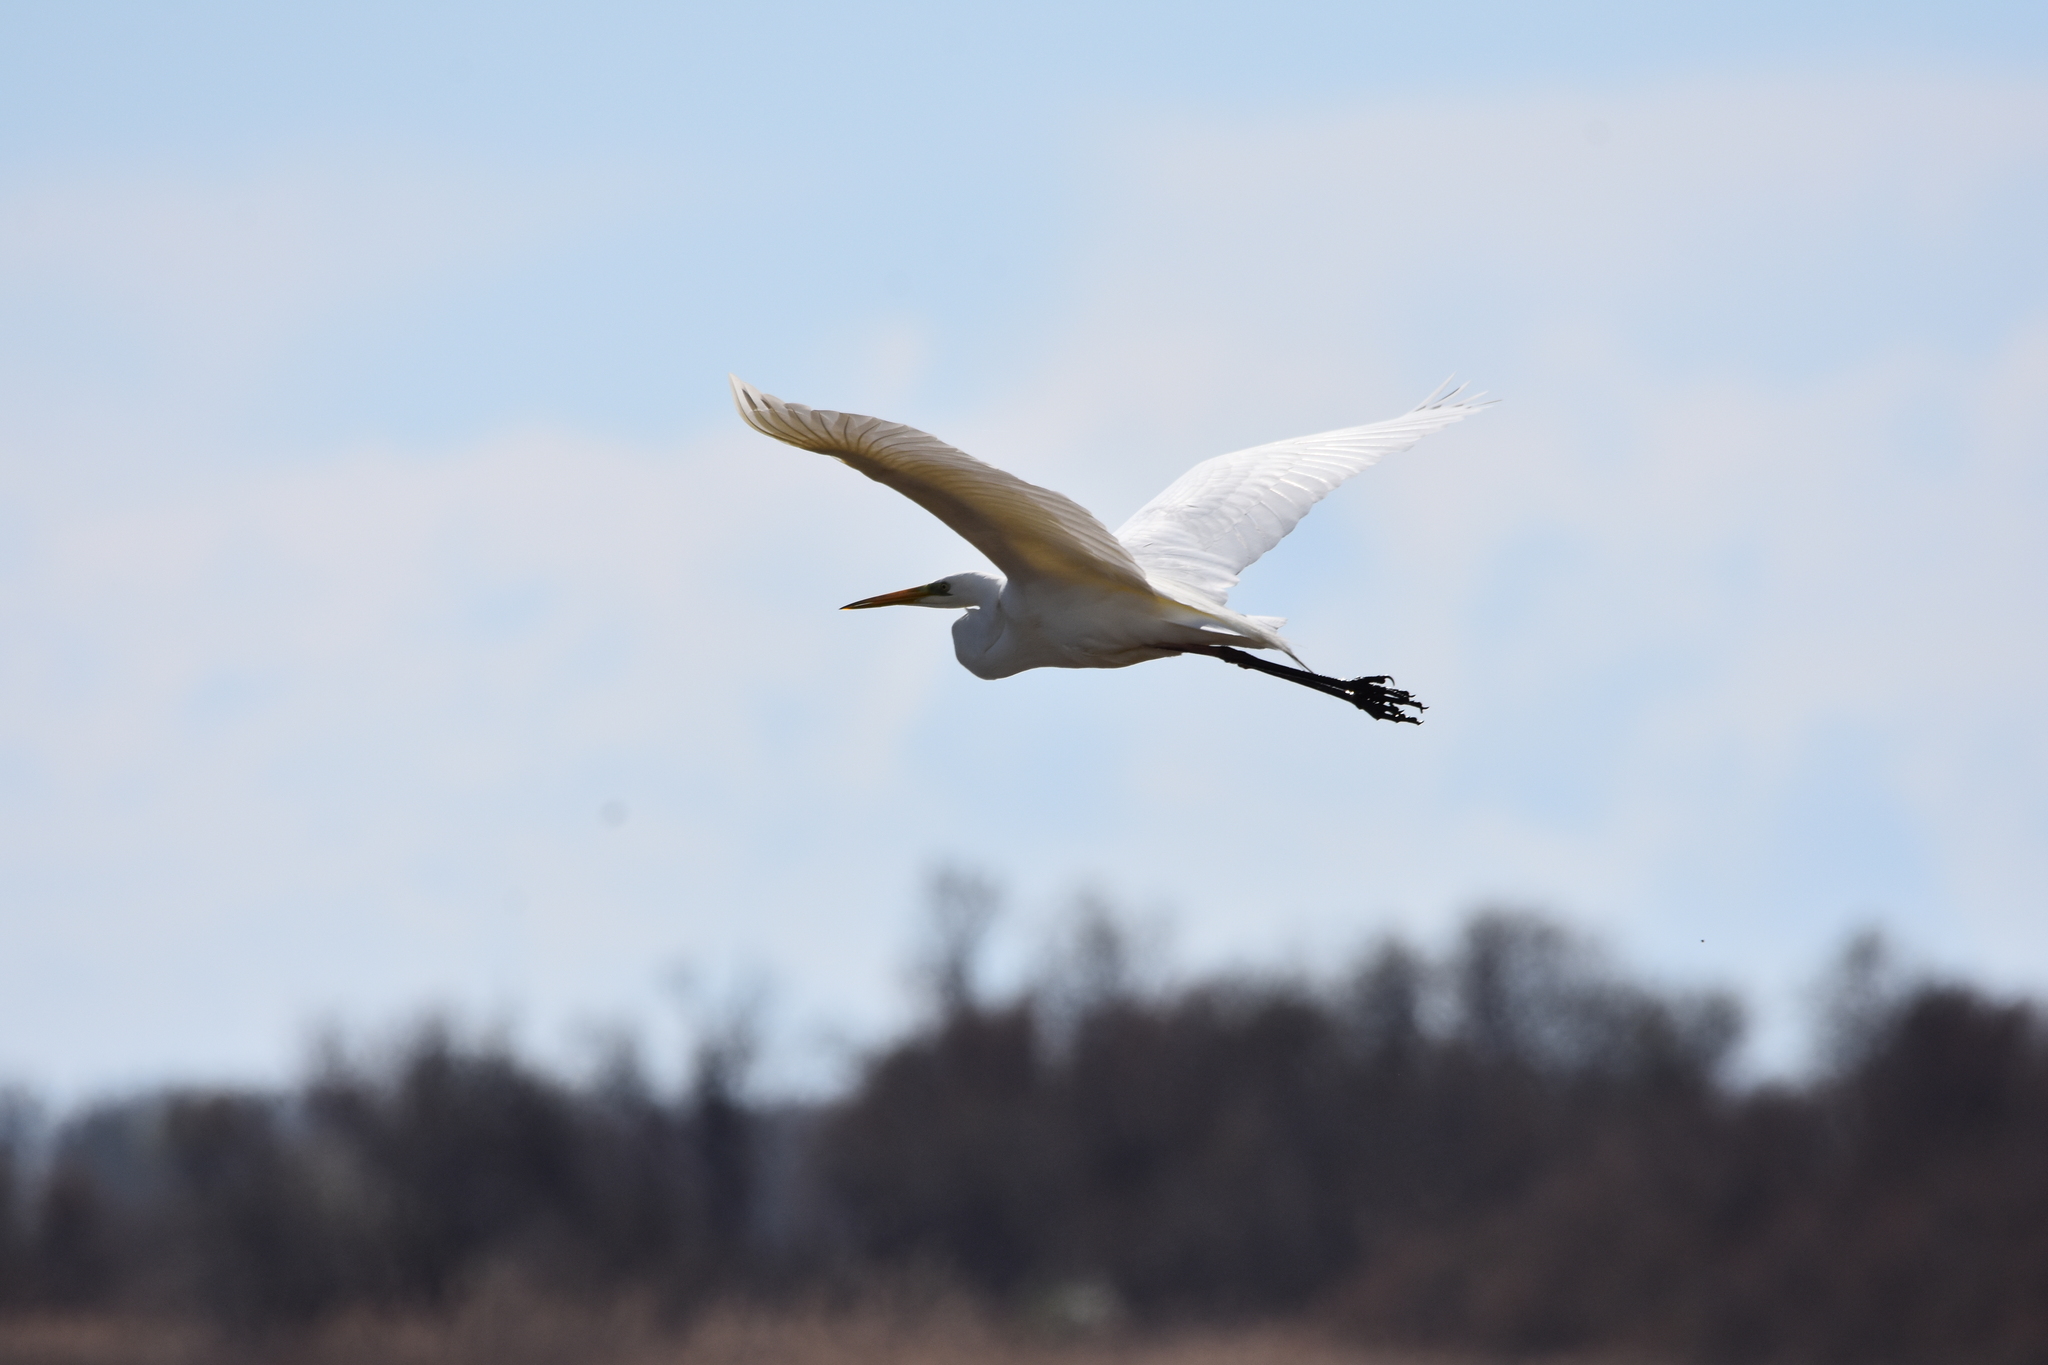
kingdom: Animalia
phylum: Chordata
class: Aves
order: Pelecaniformes
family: Ardeidae
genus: Ardea
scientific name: Ardea alba
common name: Great egret
